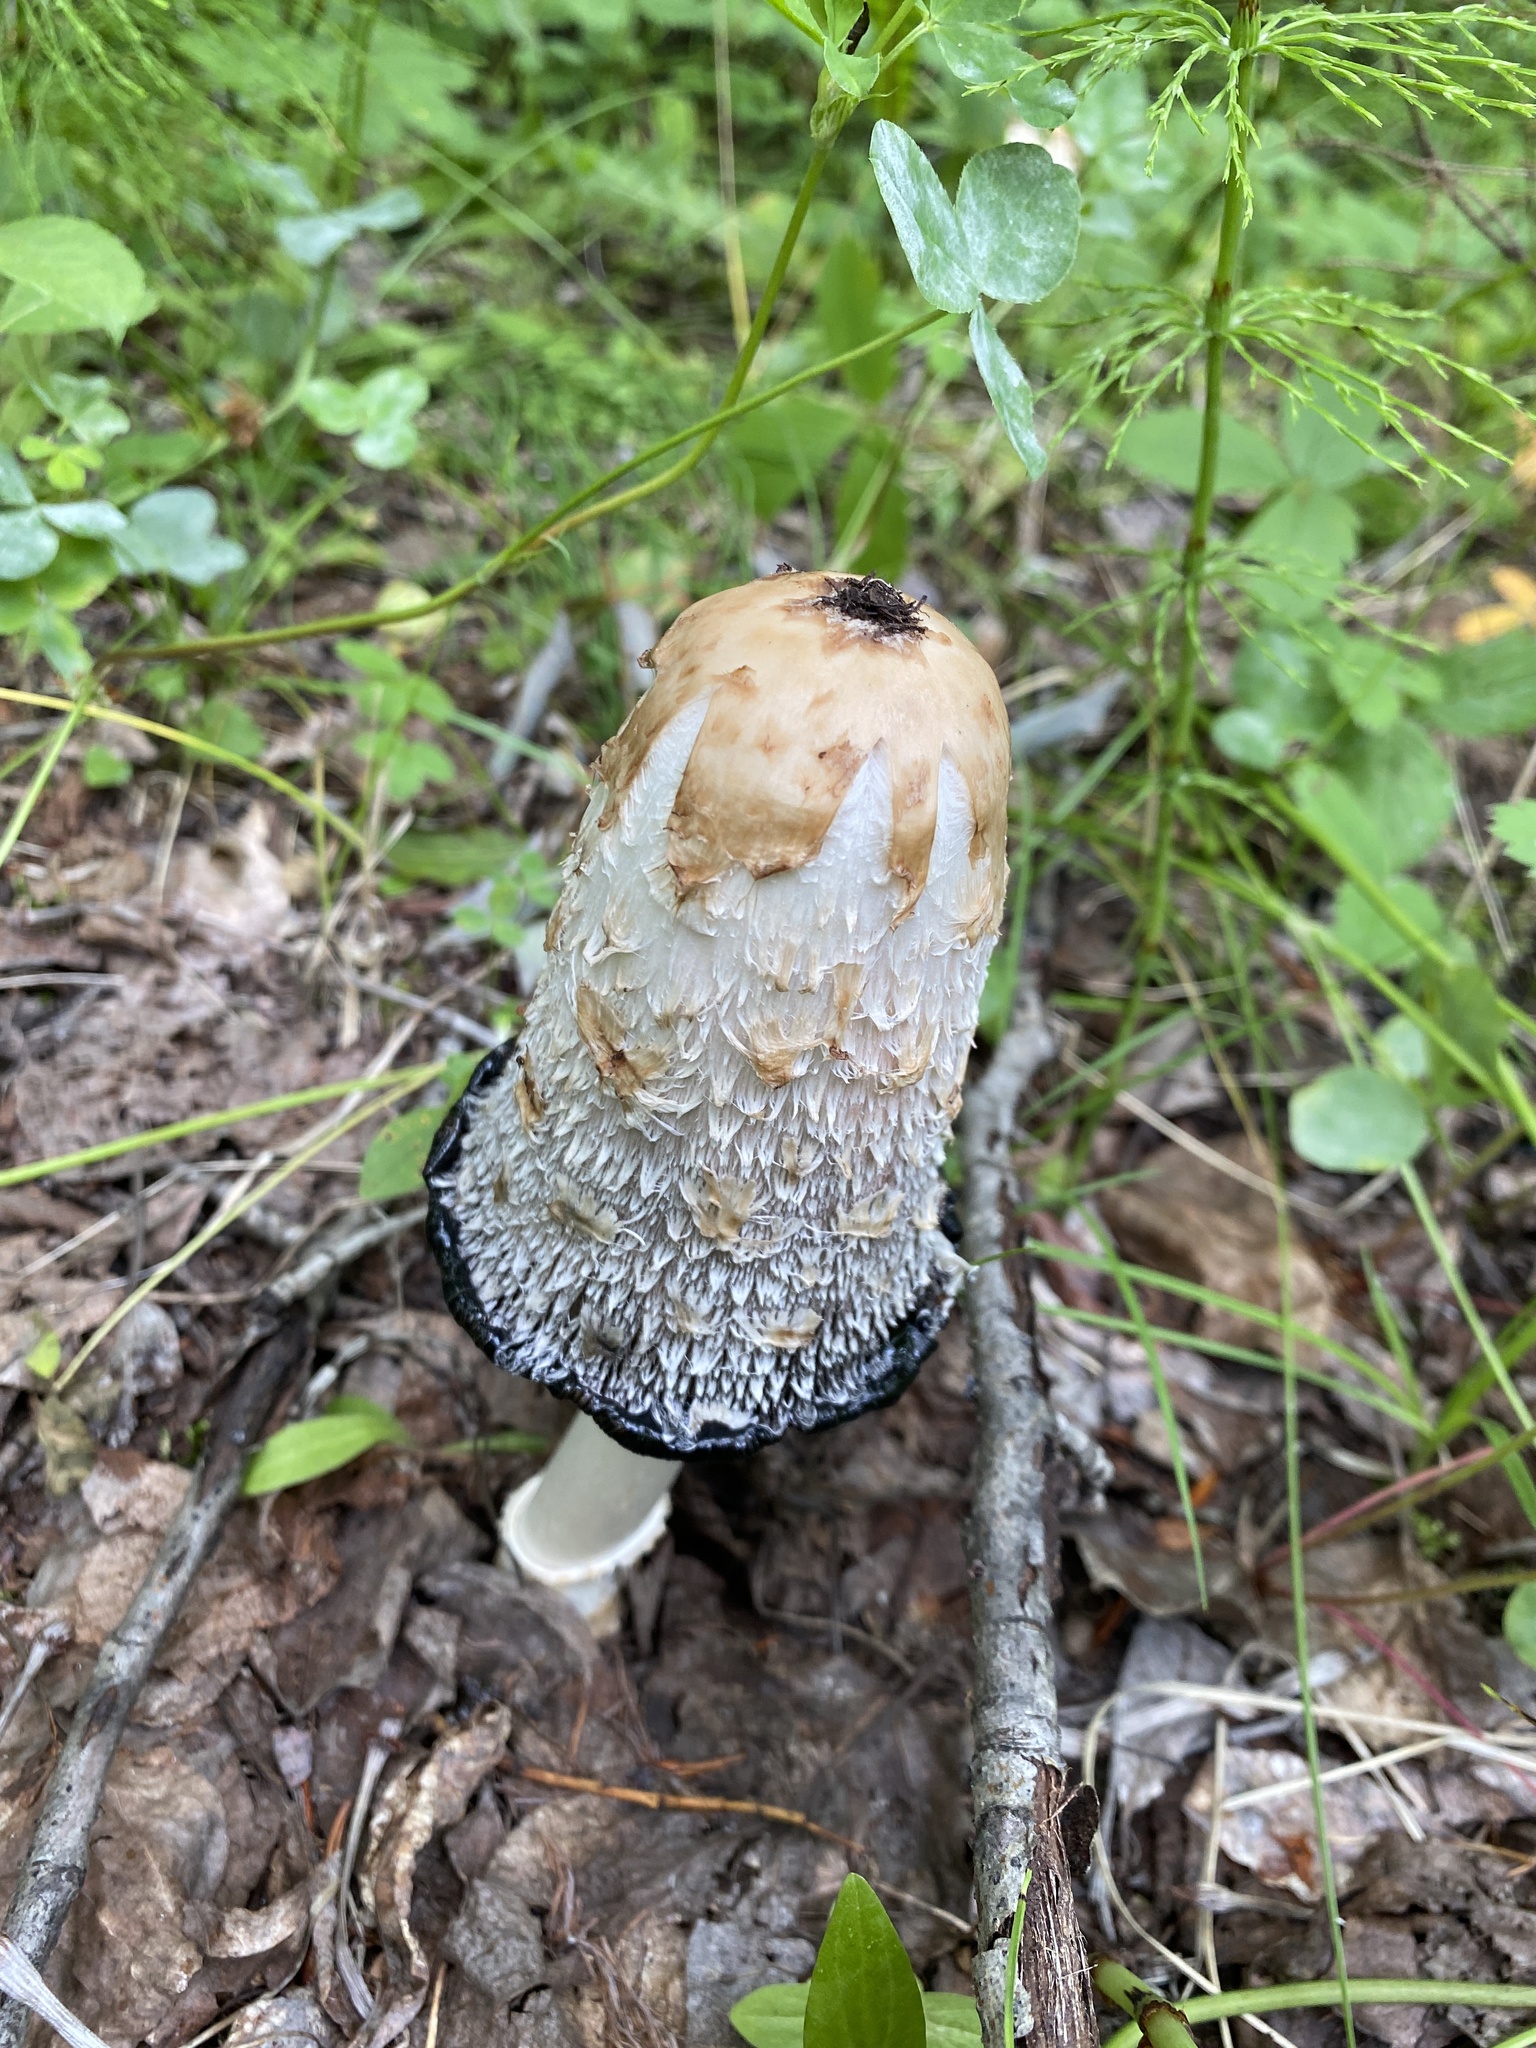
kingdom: Fungi
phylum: Basidiomycota
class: Agaricomycetes
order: Agaricales
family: Agaricaceae
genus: Coprinus
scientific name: Coprinus comatus
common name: Lawyer's wig
